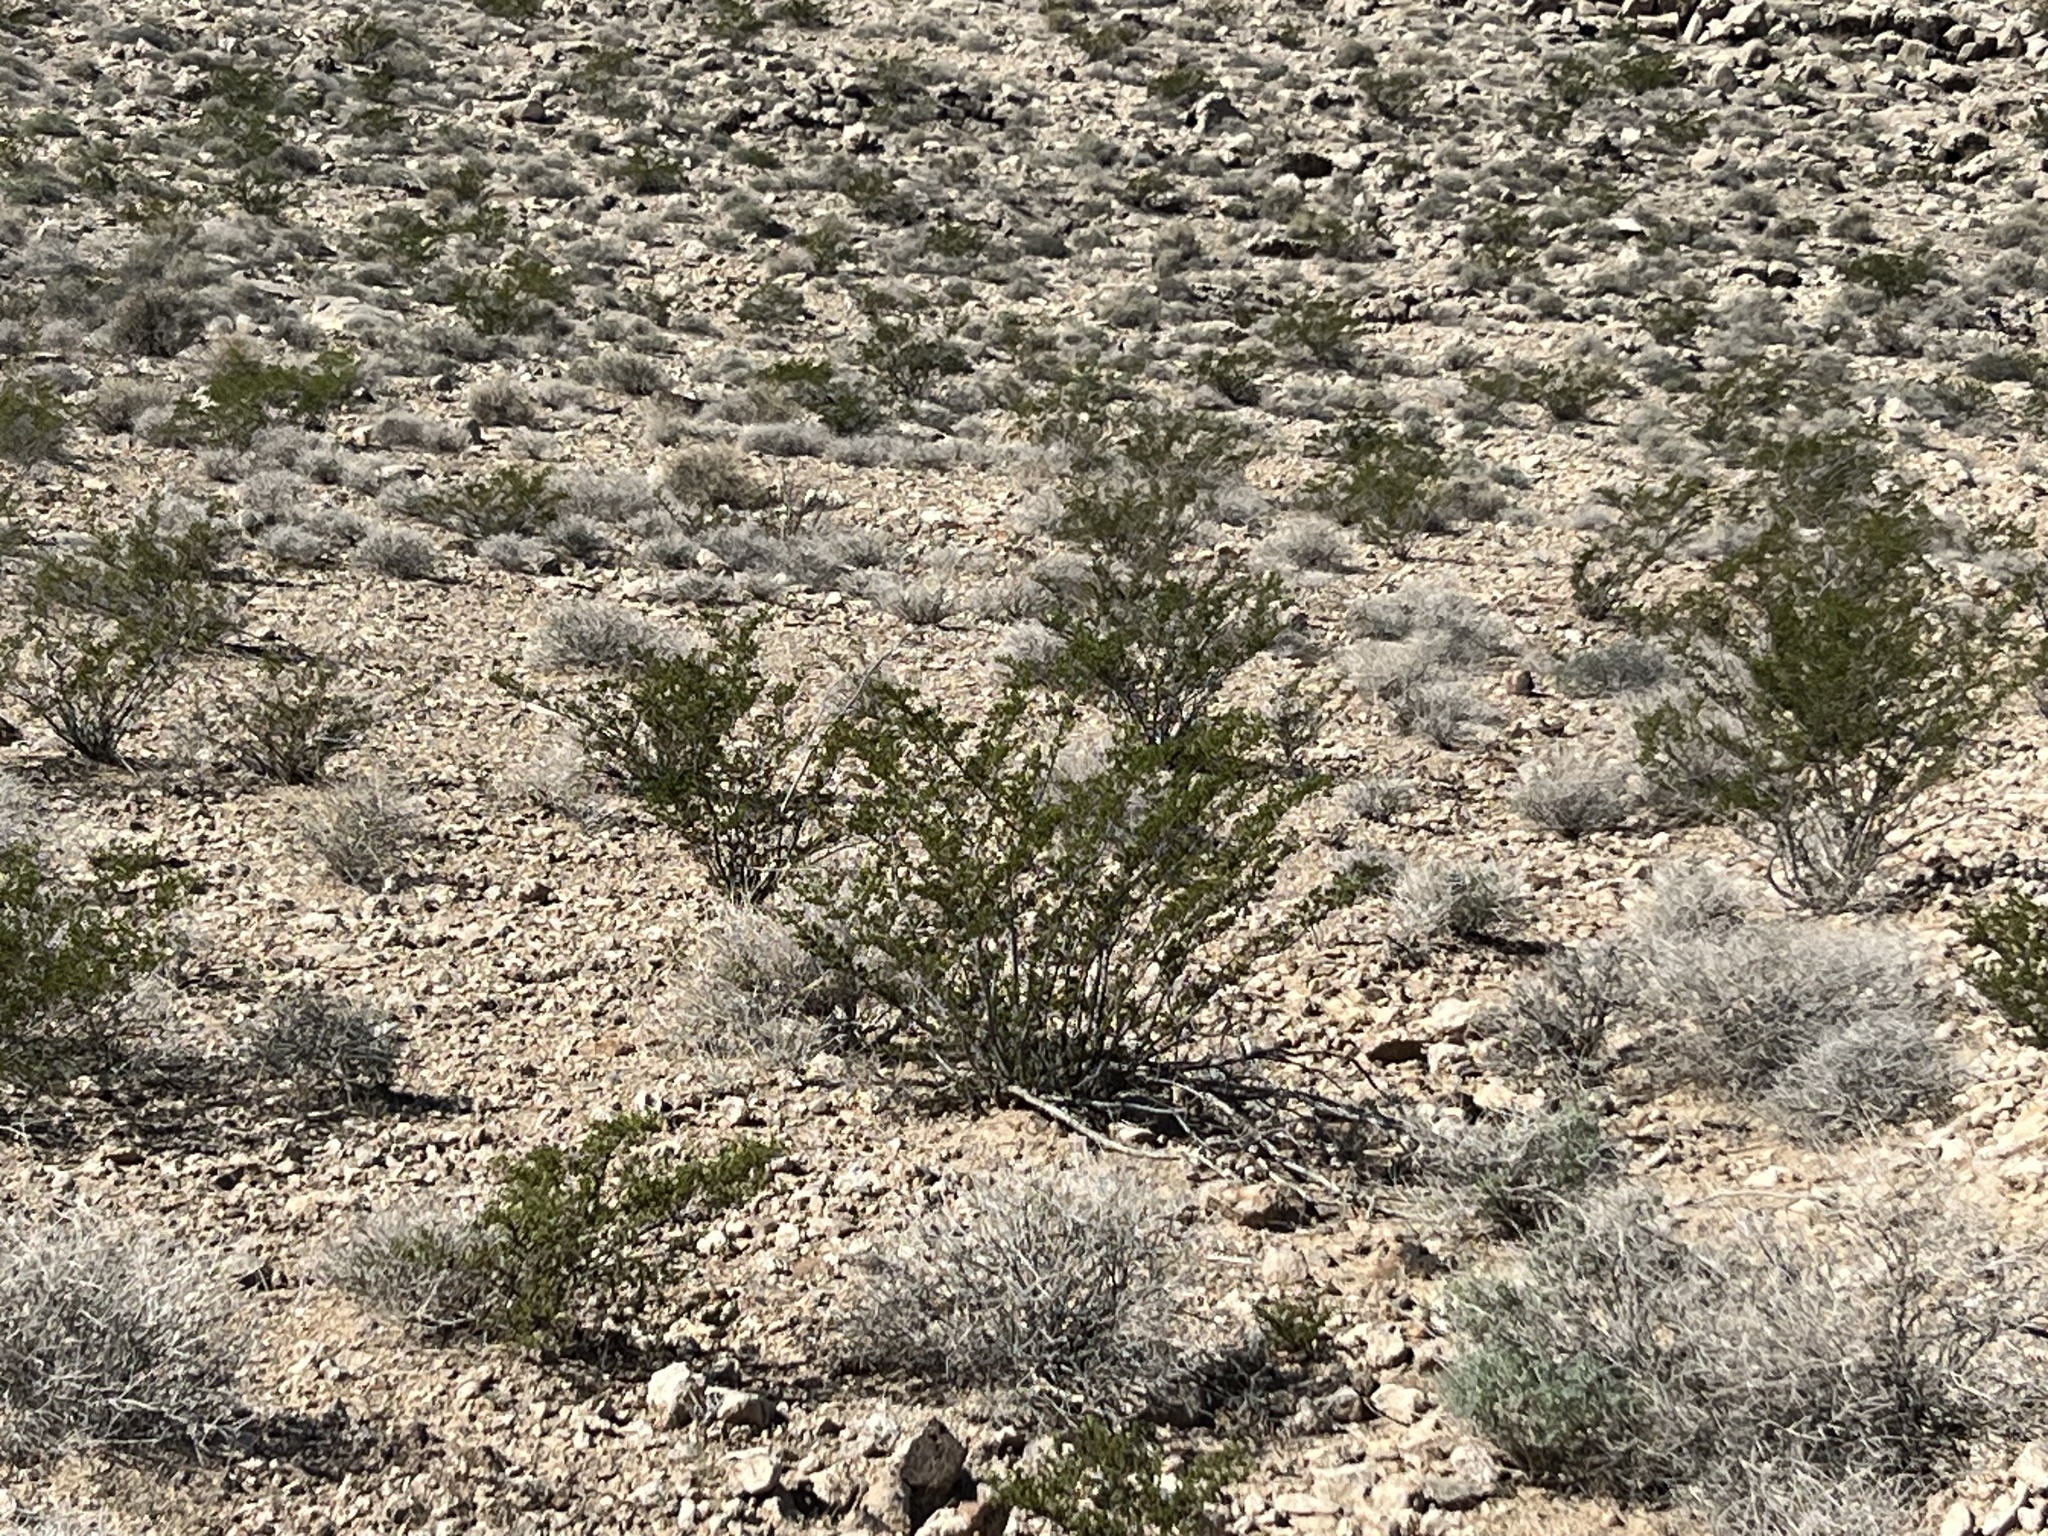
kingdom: Plantae
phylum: Tracheophyta
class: Magnoliopsida
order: Zygophyllales
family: Zygophyllaceae
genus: Larrea
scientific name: Larrea tridentata
